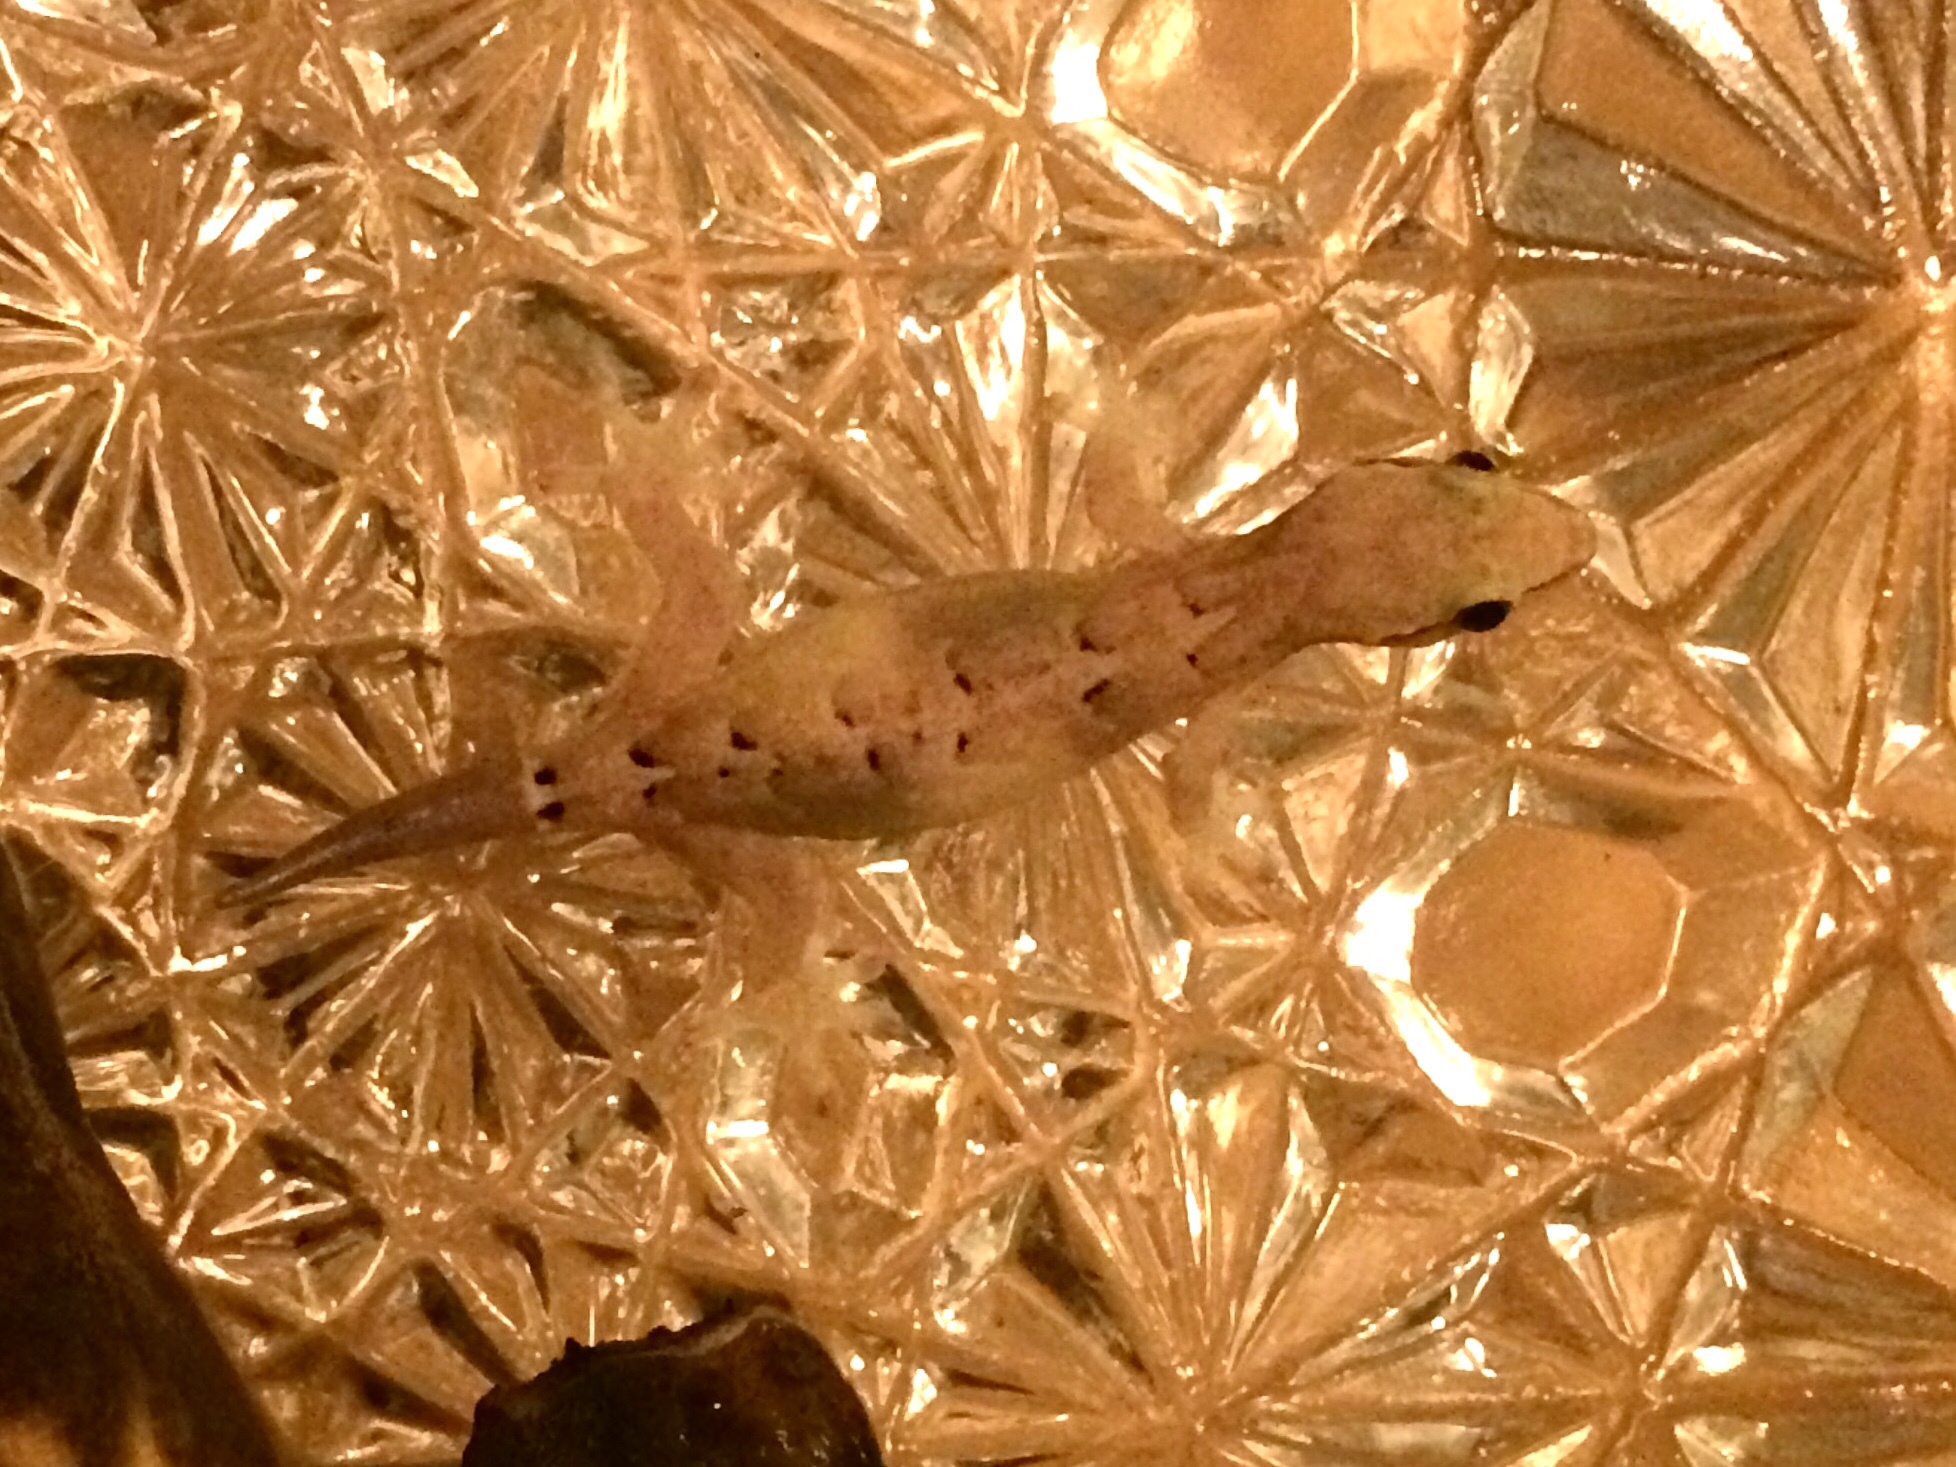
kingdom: Animalia
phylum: Chordata
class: Squamata
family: Gekkonidae
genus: Lepidodactylus
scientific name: Lepidodactylus lugubris
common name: Mourning gecko
